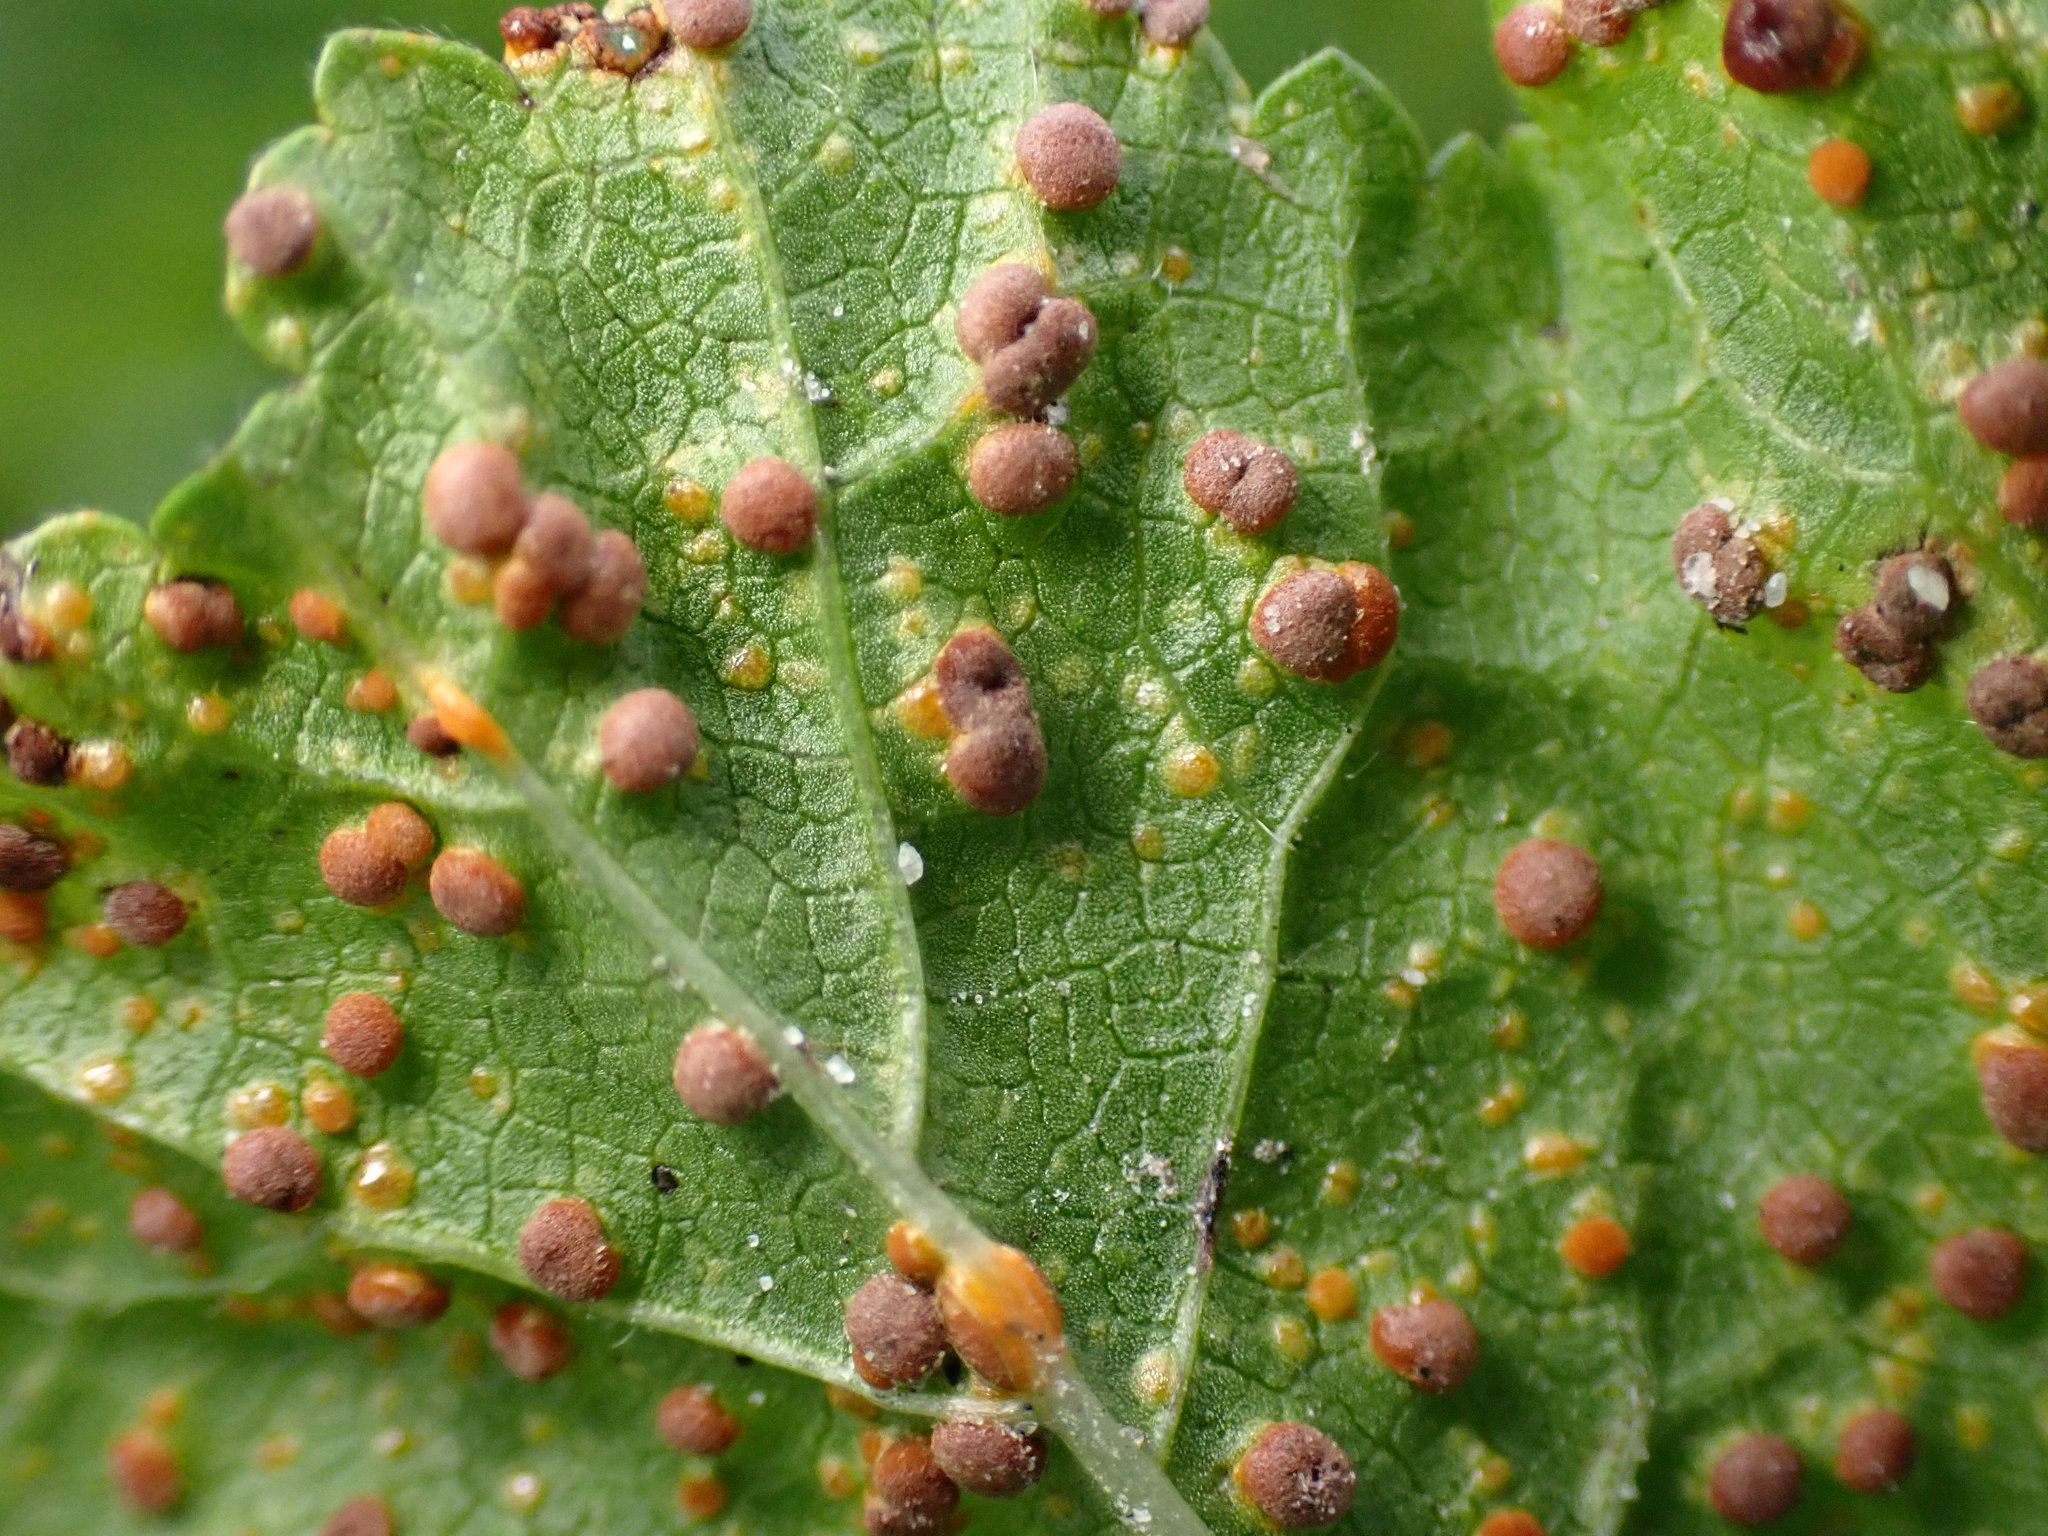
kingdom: Fungi
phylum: Basidiomycota
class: Pucciniomycetes
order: Pucciniales
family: Pucciniaceae
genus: Puccinia
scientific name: Puccinia malvacearum
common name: Hollyhock rust
